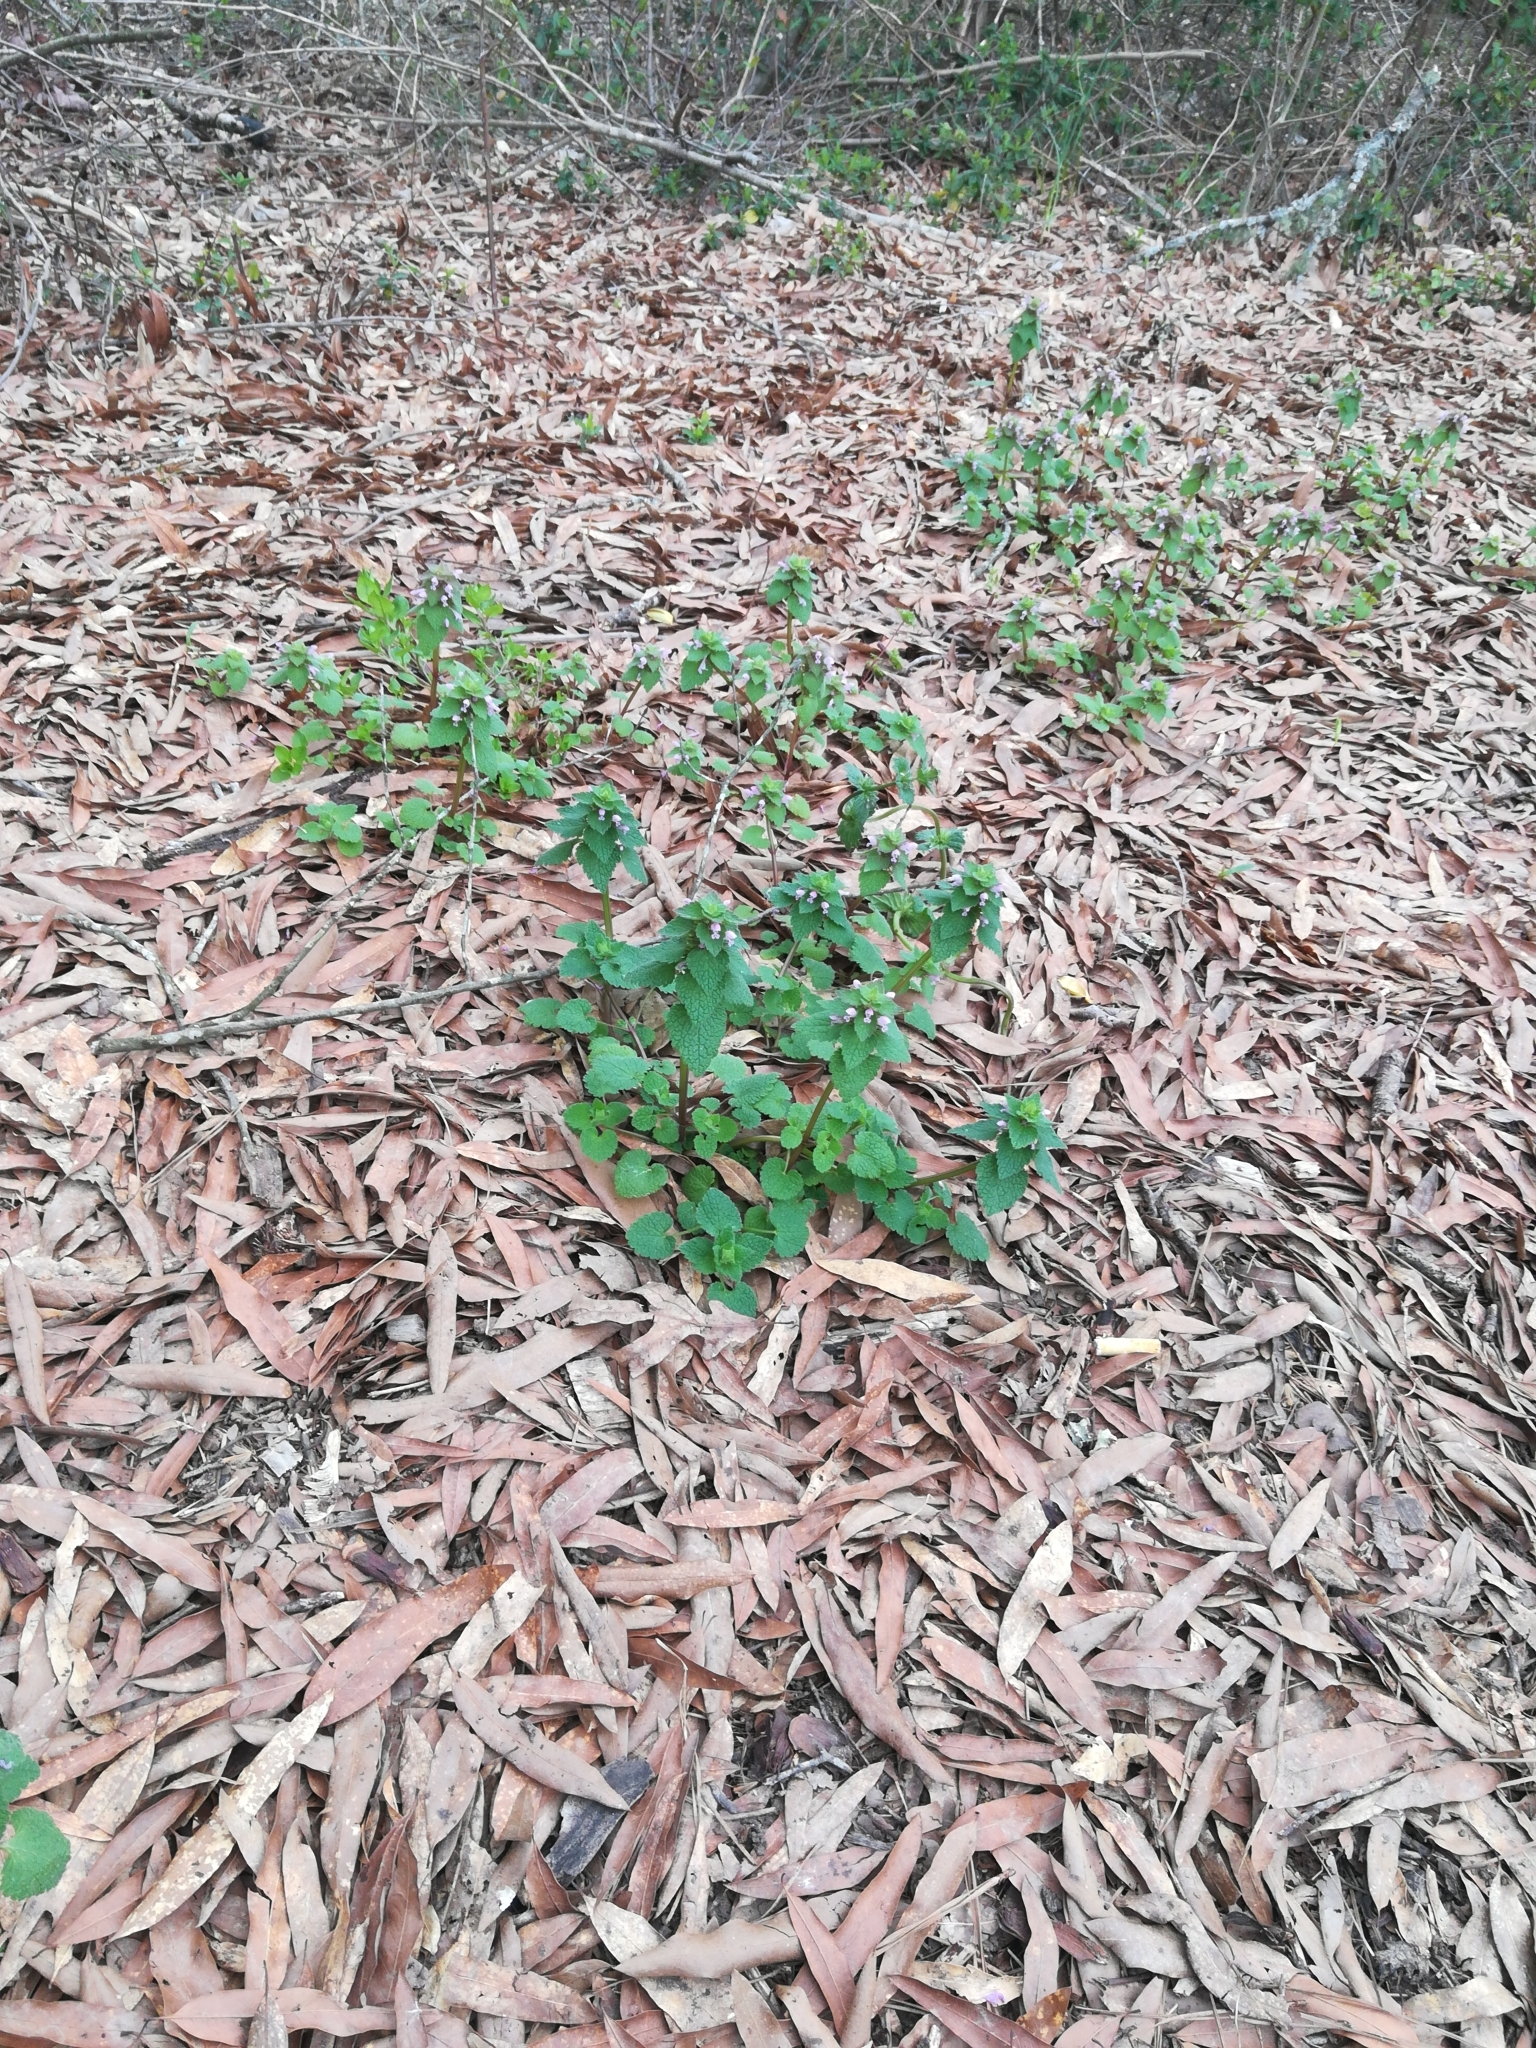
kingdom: Plantae
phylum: Tracheophyta
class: Magnoliopsida
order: Lamiales
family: Lamiaceae
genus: Lamium
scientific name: Lamium purpureum
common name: Red dead-nettle
